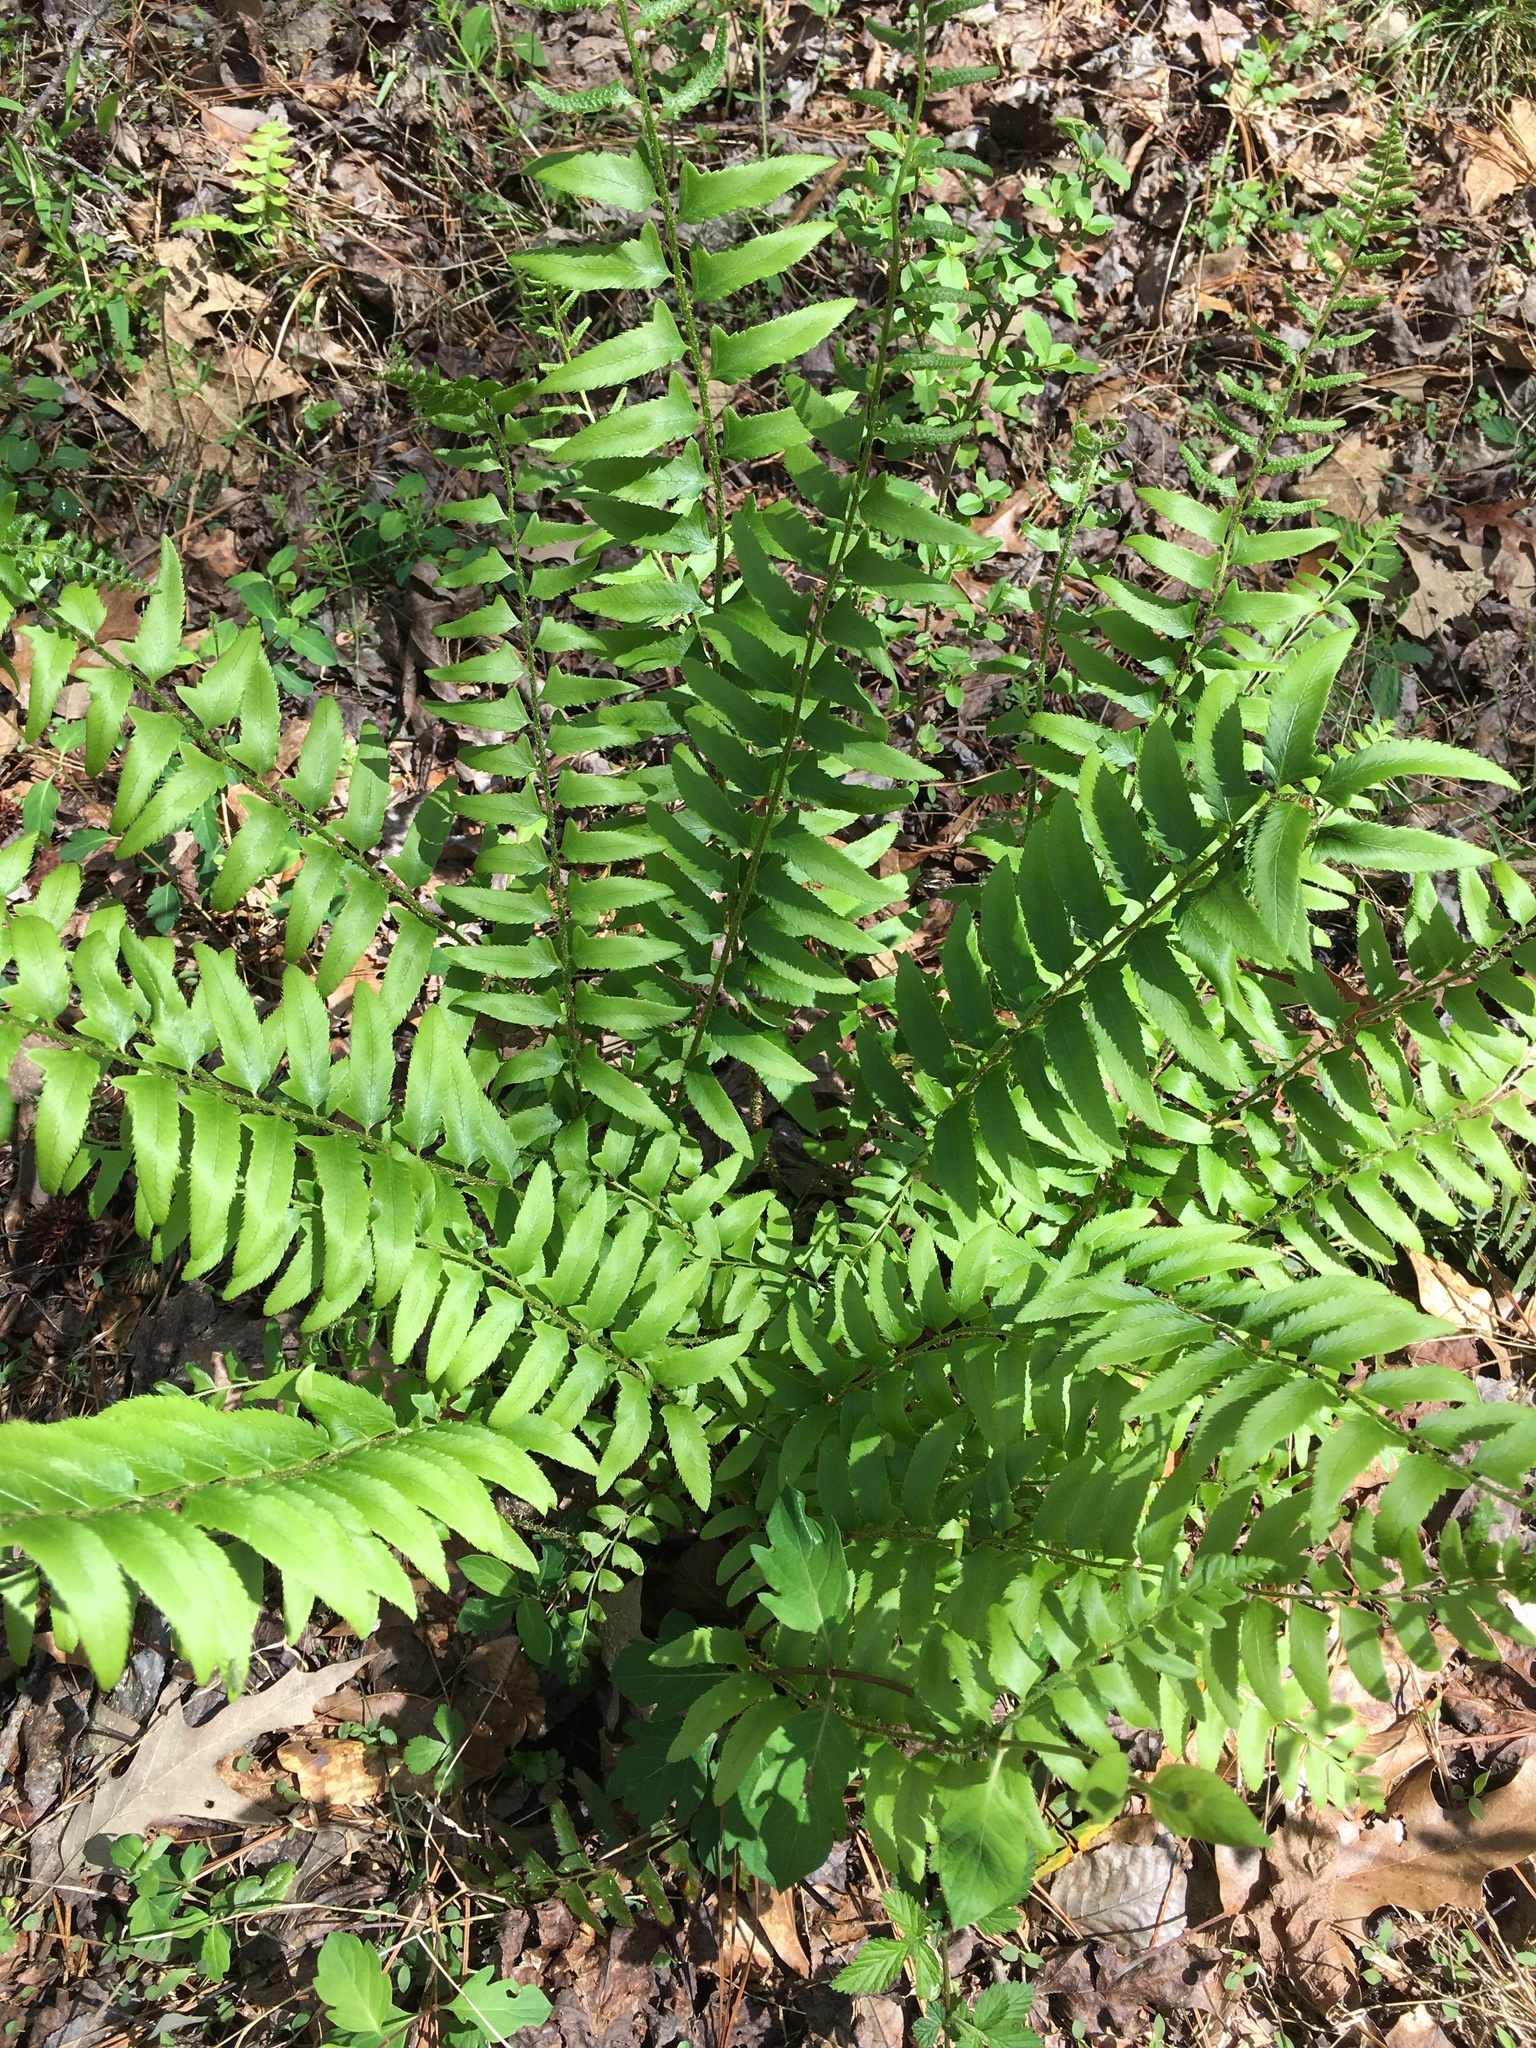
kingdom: Plantae
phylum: Tracheophyta
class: Polypodiopsida
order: Polypodiales
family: Dryopteridaceae
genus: Polystichum
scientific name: Polystichum acrostichoides
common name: Christmas fern
